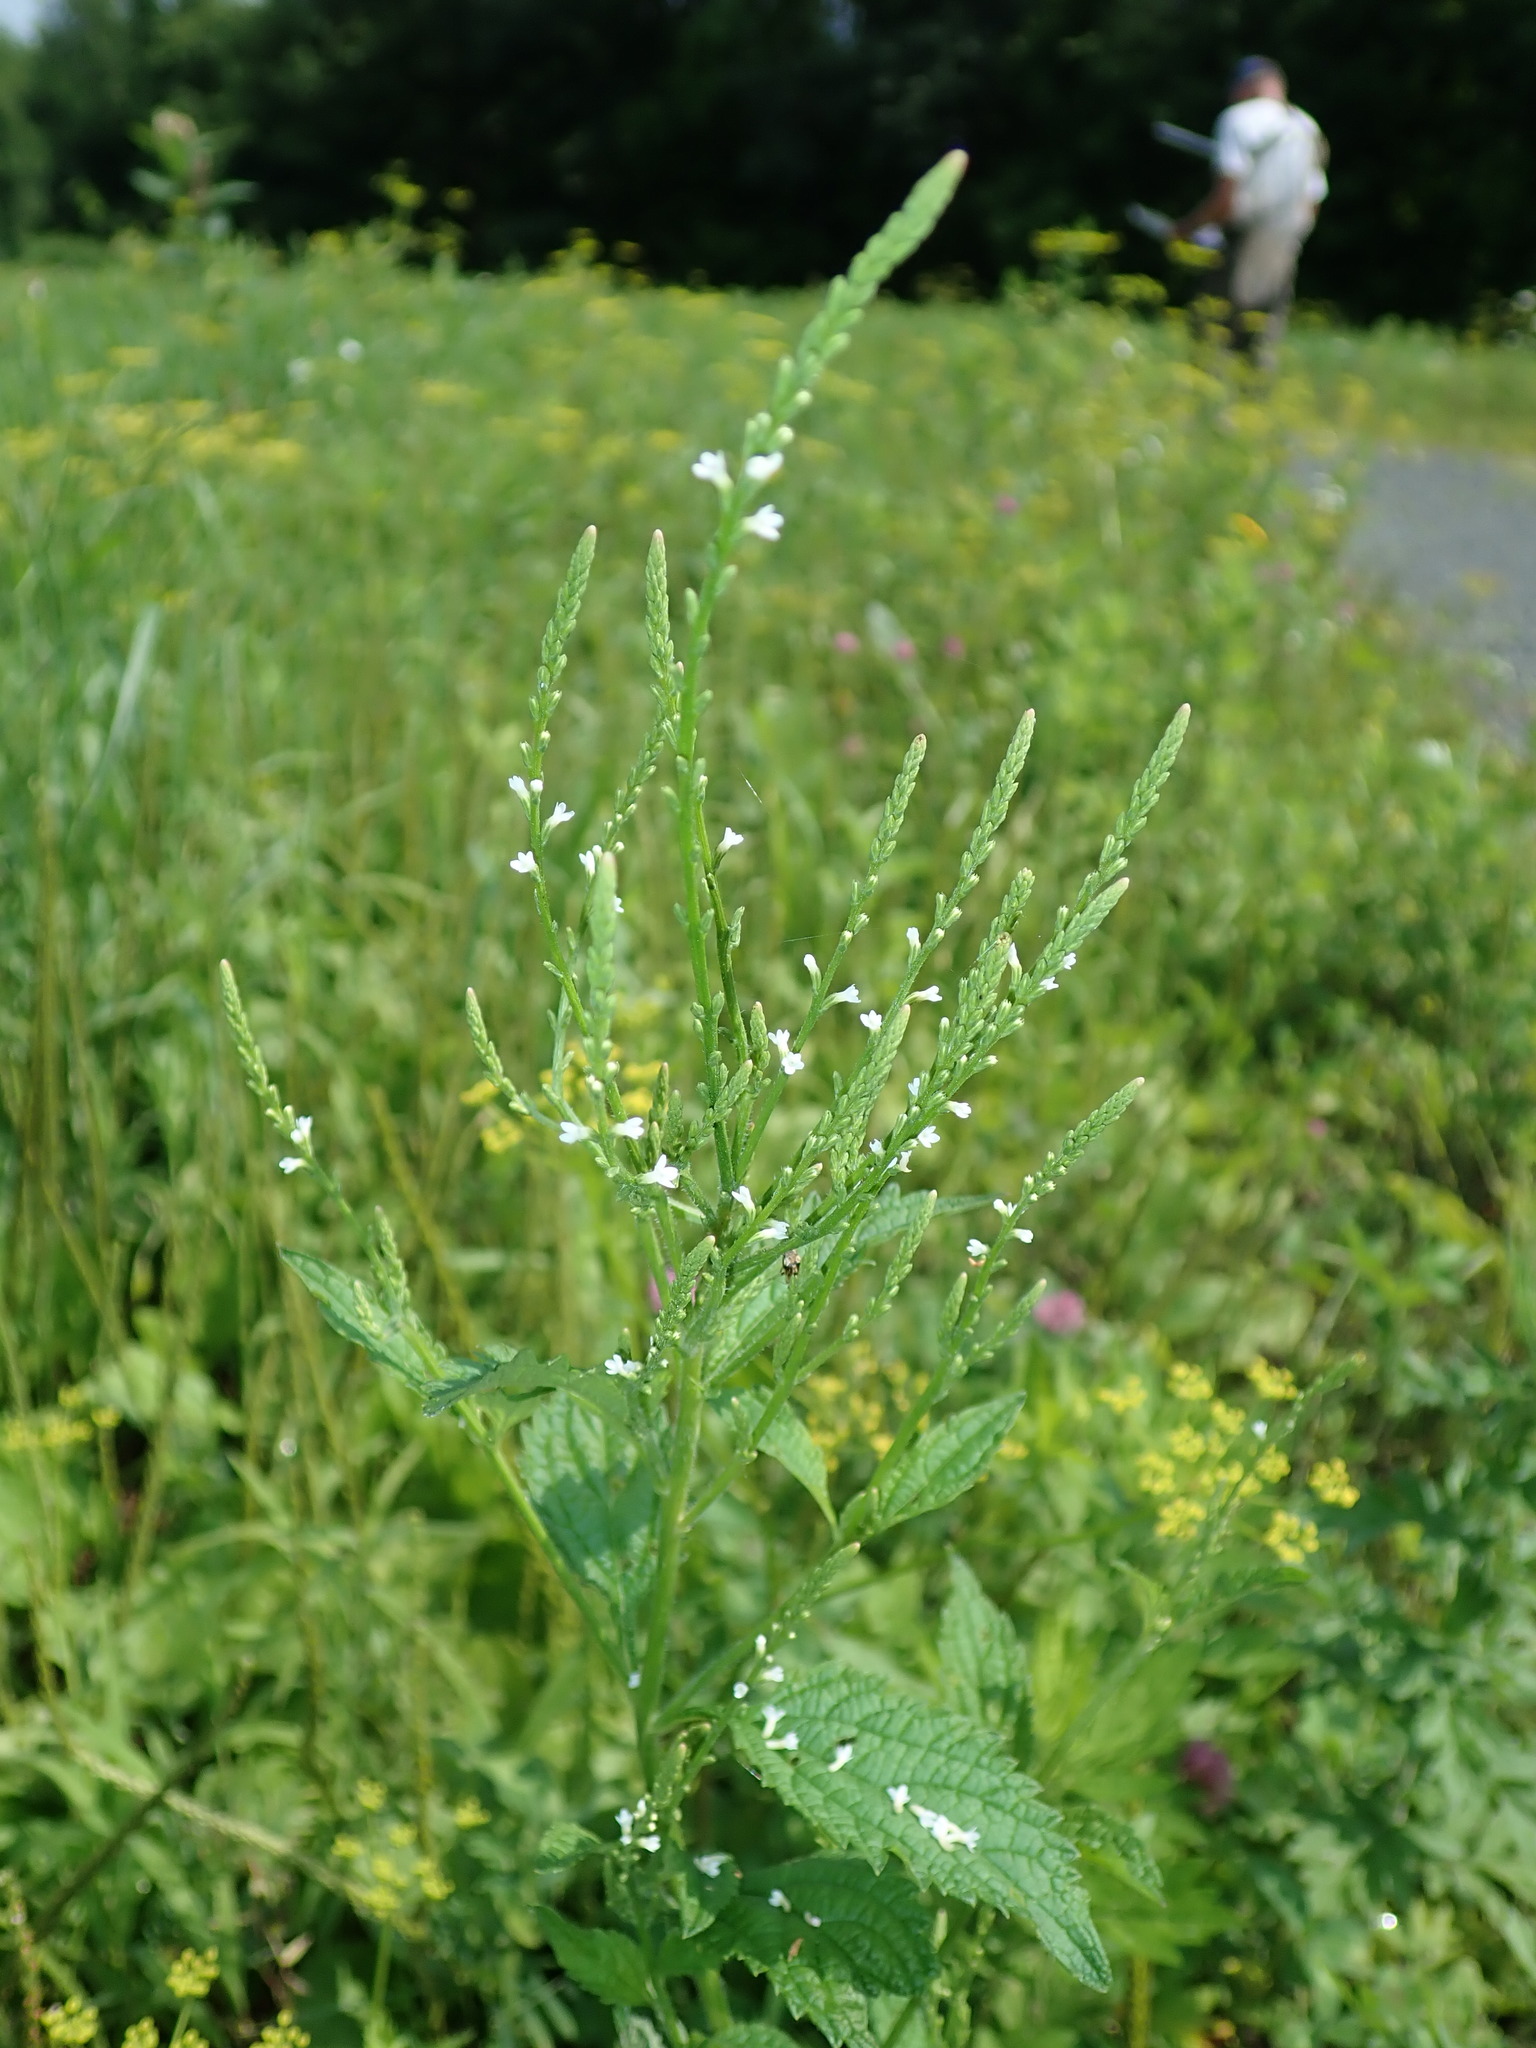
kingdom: Plantae
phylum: Tracheophyta
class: Magnoliopsida
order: Lamiales
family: Verbenaceae
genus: Verbena
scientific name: Verbena urticifolia
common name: Nettle-leaved vervain
